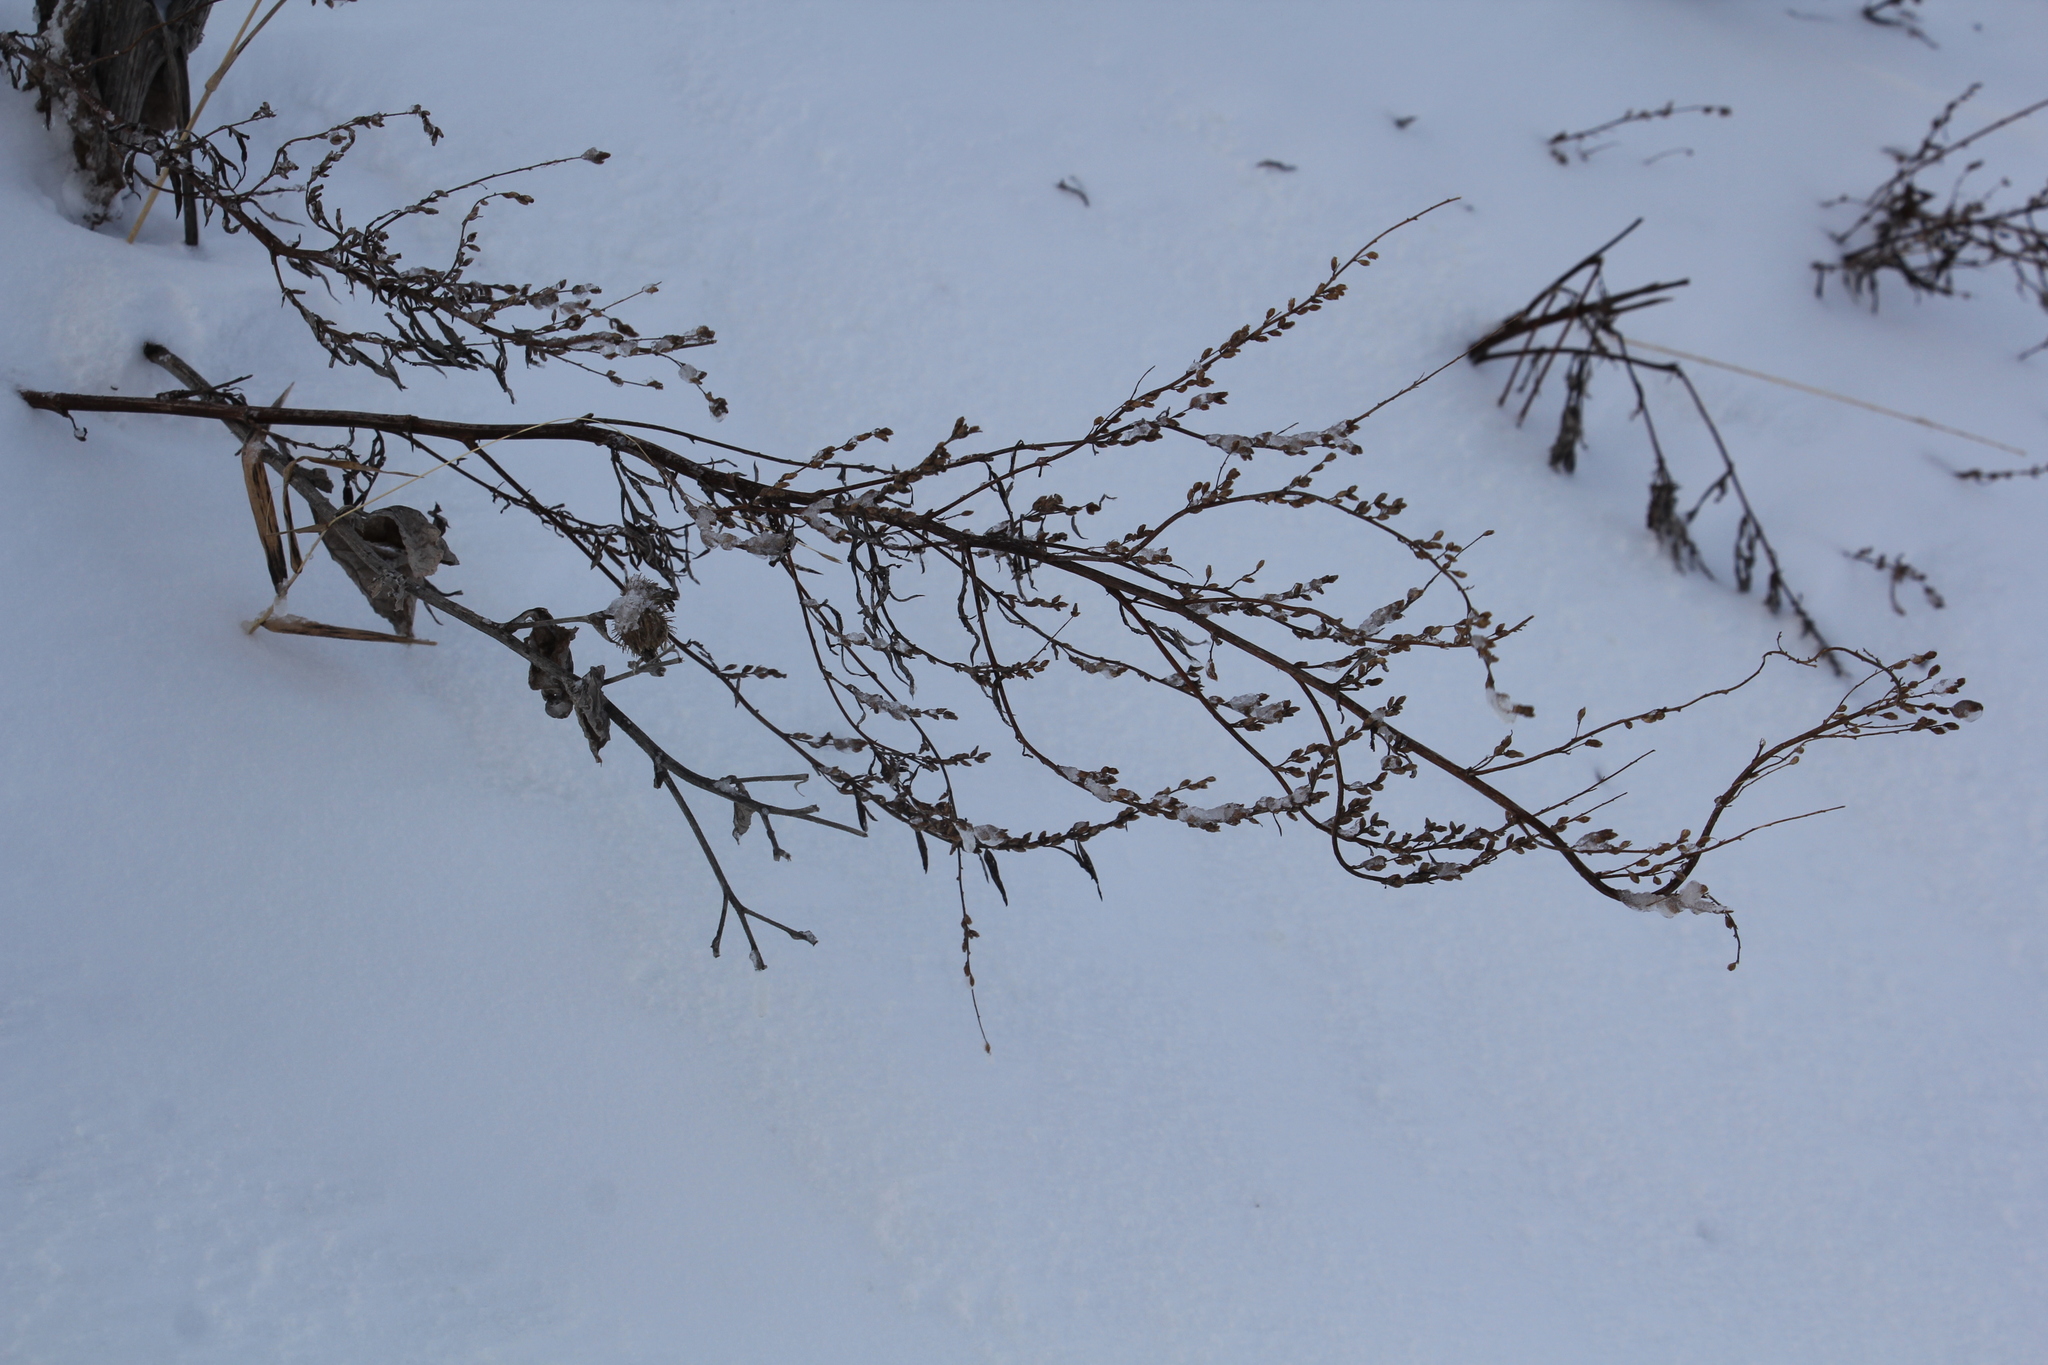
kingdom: Plantae
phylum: Tracheophyta
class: Magnoliopsida
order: Asterales
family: Asteraceae
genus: Artemisia
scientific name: Artemisia vulgaris
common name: Mugwort
